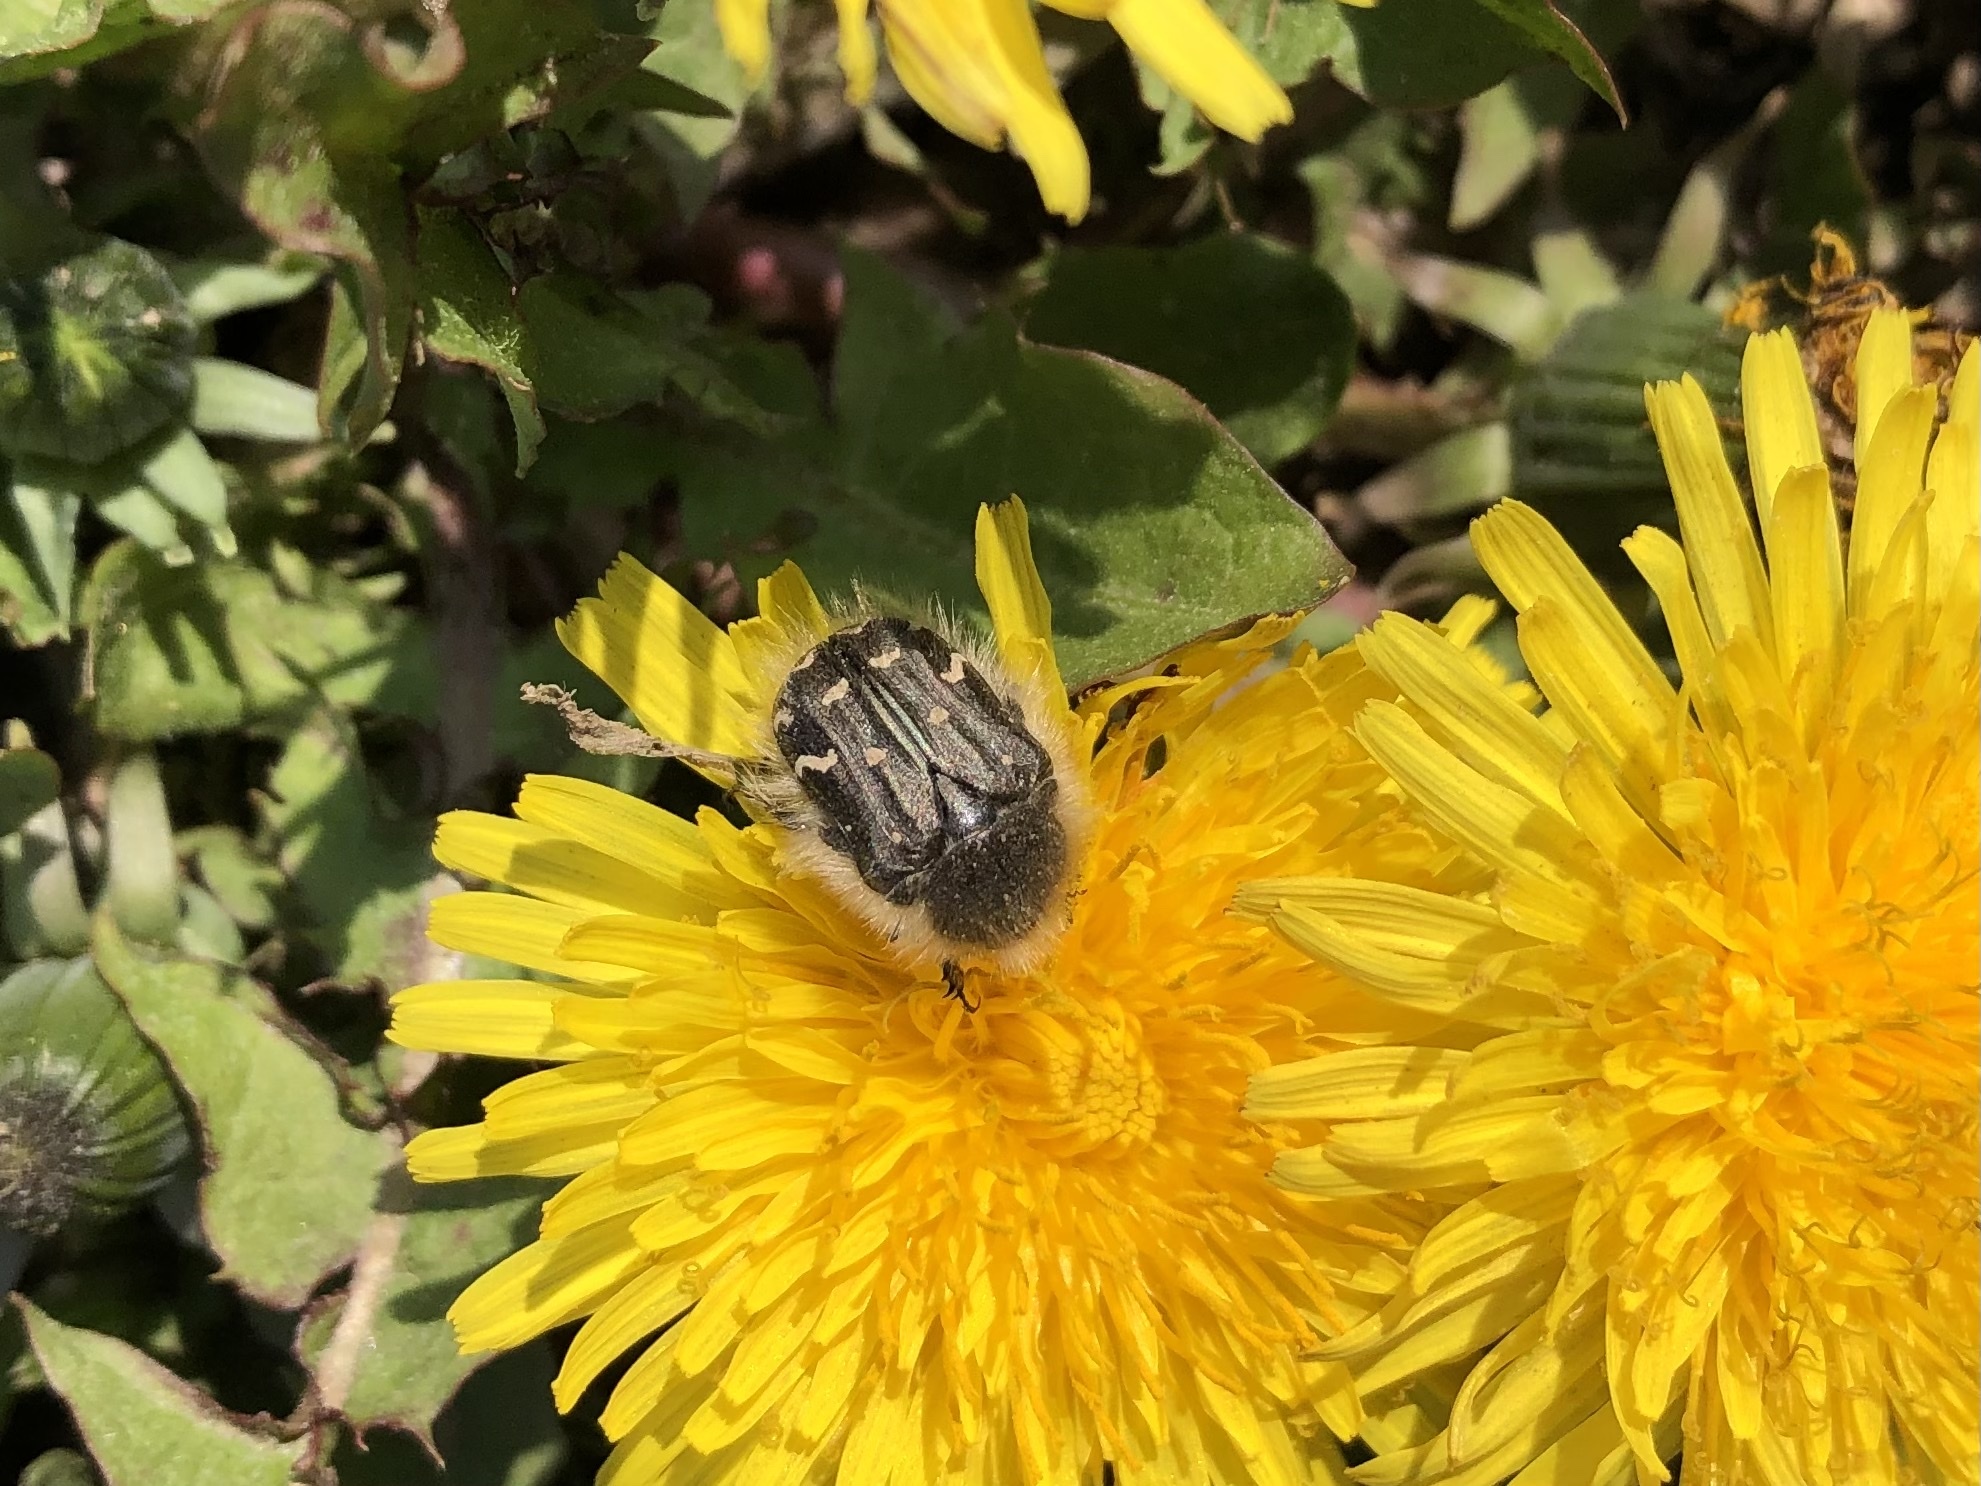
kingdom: Animalia
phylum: Arthropoda
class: Insecta
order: Coleoptera
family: Scarabaeidae
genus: Tropinota
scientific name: Tropinota hirta
